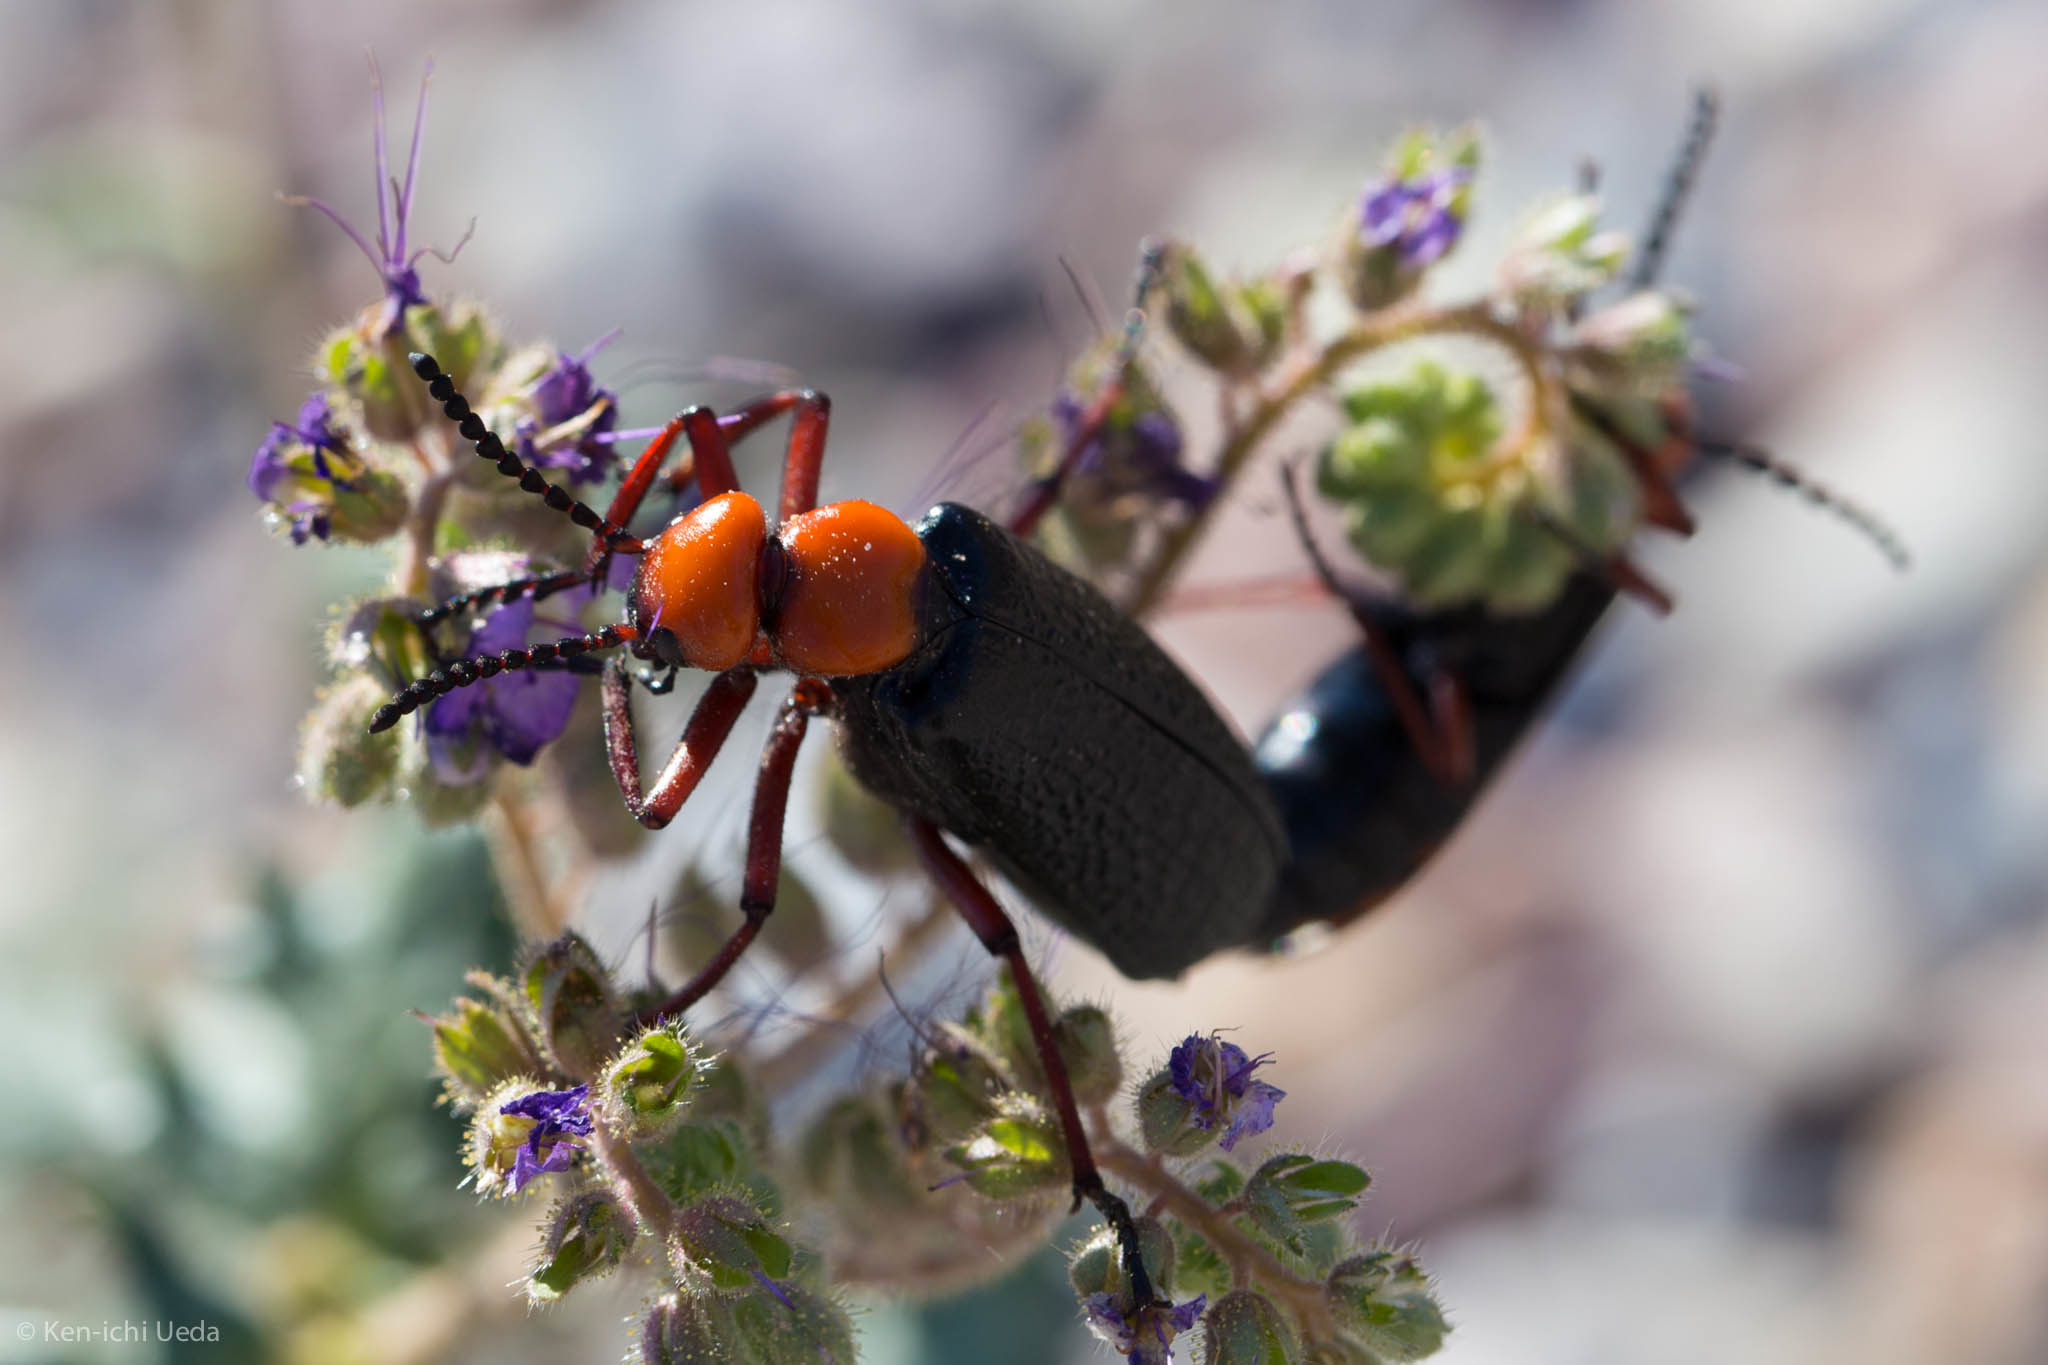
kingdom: Animalia
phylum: Arthropoda
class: Insecta
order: Coleoptera
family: Meloidae
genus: Lytta
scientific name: Lytta magister
